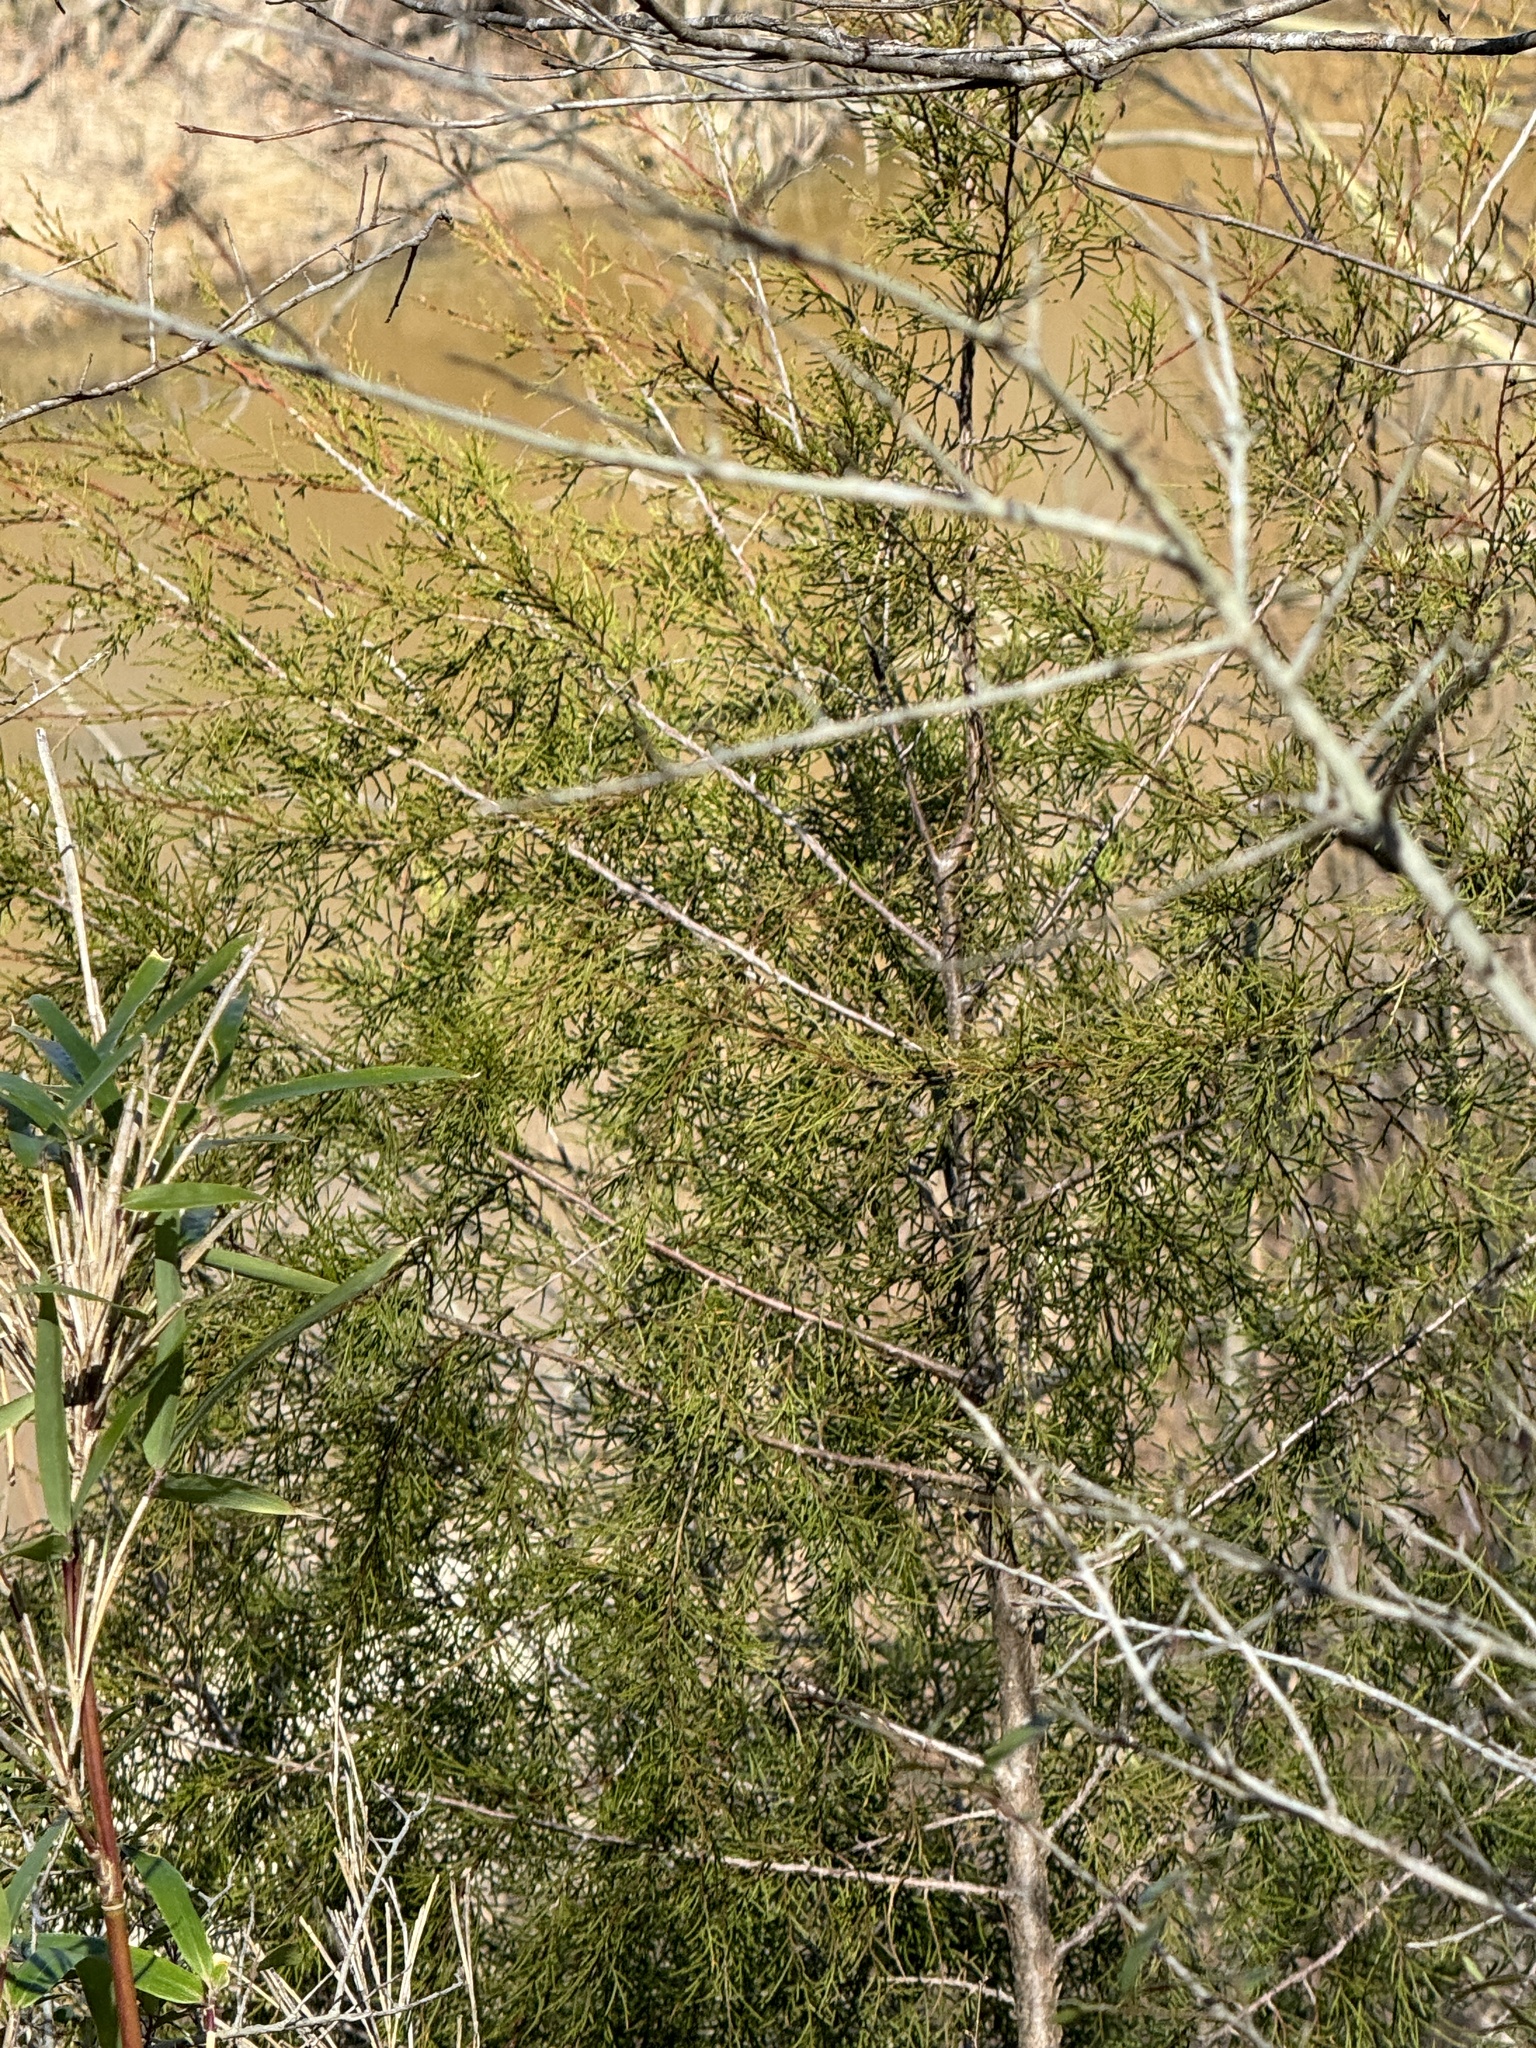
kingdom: Plantae
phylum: Tracheophyta
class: Pinopsida
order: Pinales
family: Cupressaceae
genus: Juniperus
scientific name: Juniperus virginiana
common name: Red juniper
